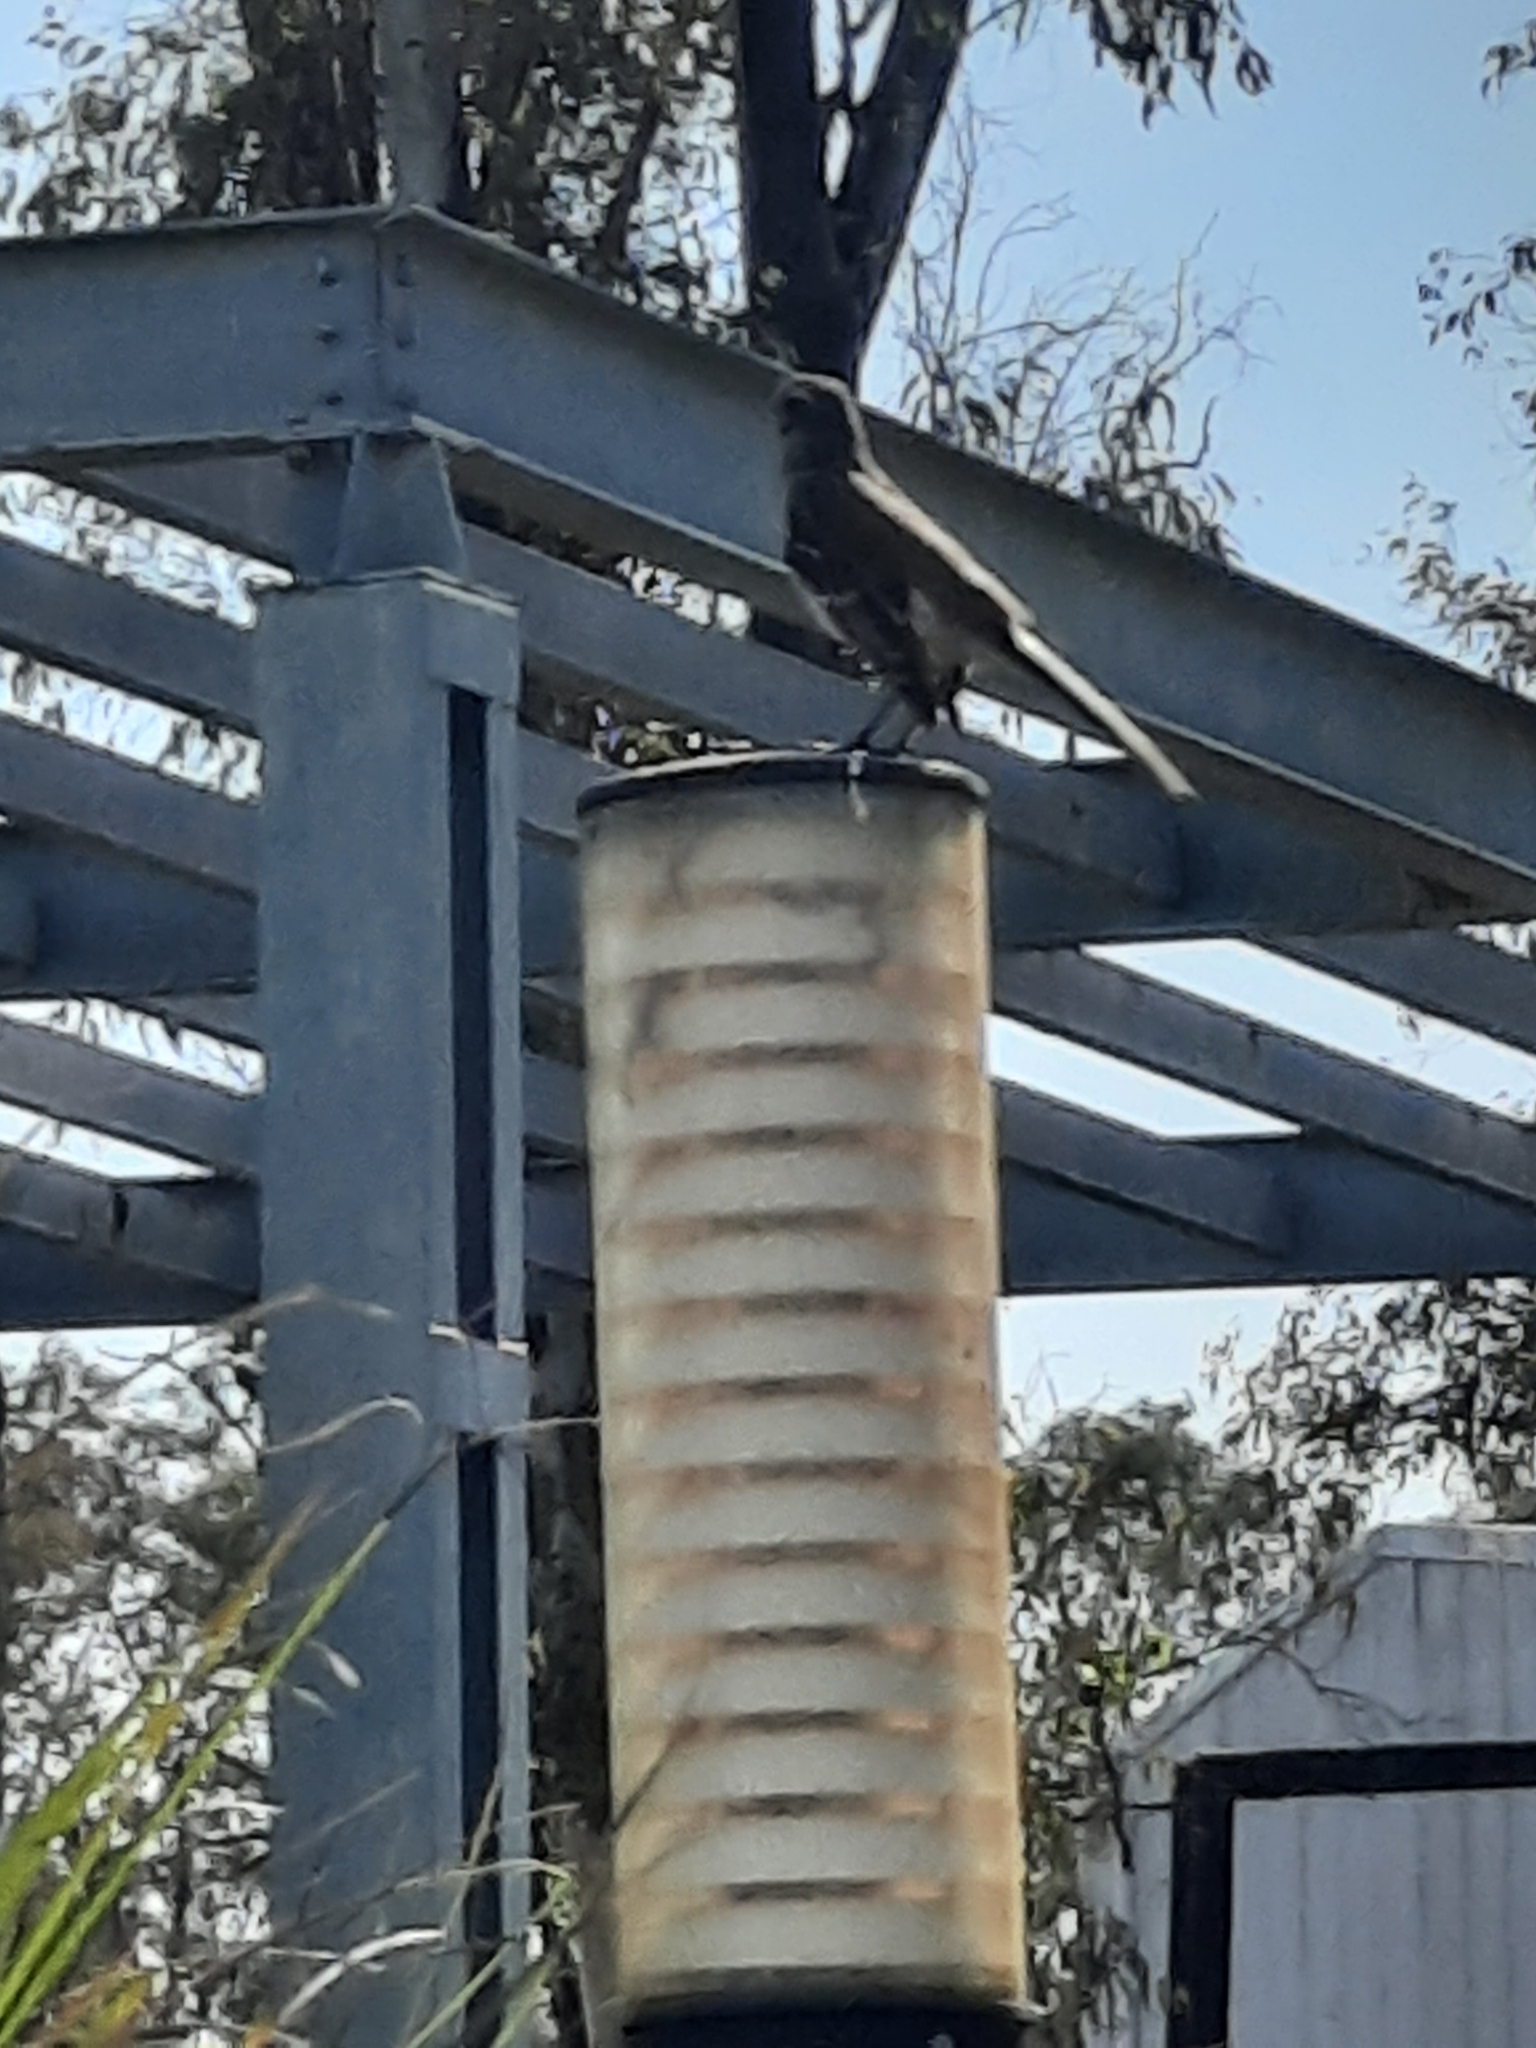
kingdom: Animalia
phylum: Chordata
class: Aves
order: Passeriformes
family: Mimidae
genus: Mimus
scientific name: Mimus saturninus
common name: Chalk-browed mockingbird
